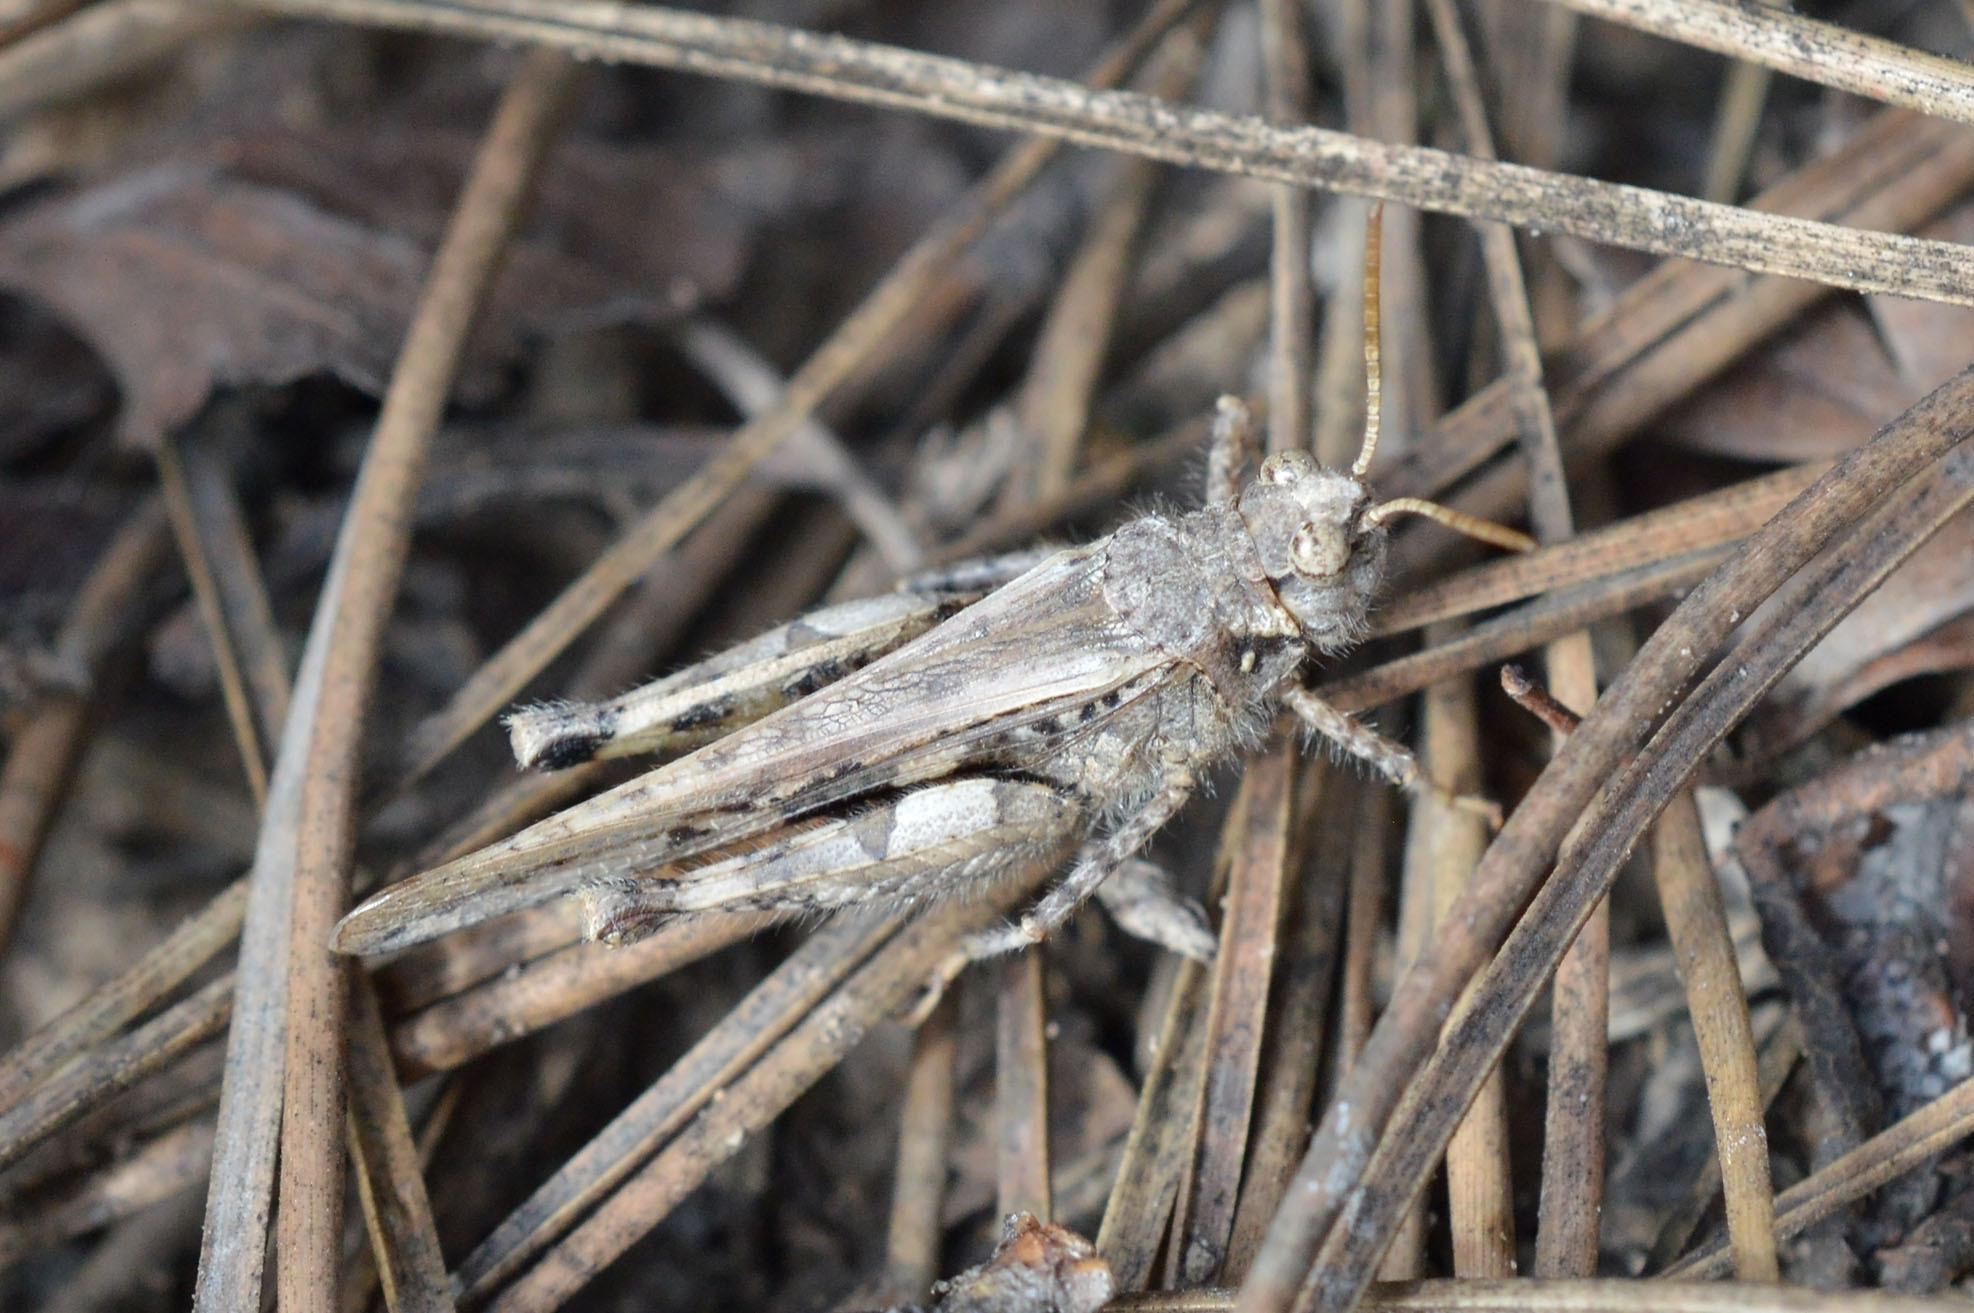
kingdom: Animalia
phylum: Arthropoda
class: Insecta
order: Orthoptera
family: Acrididae
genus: Acrotylus
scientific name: Acrotylus insubricus
